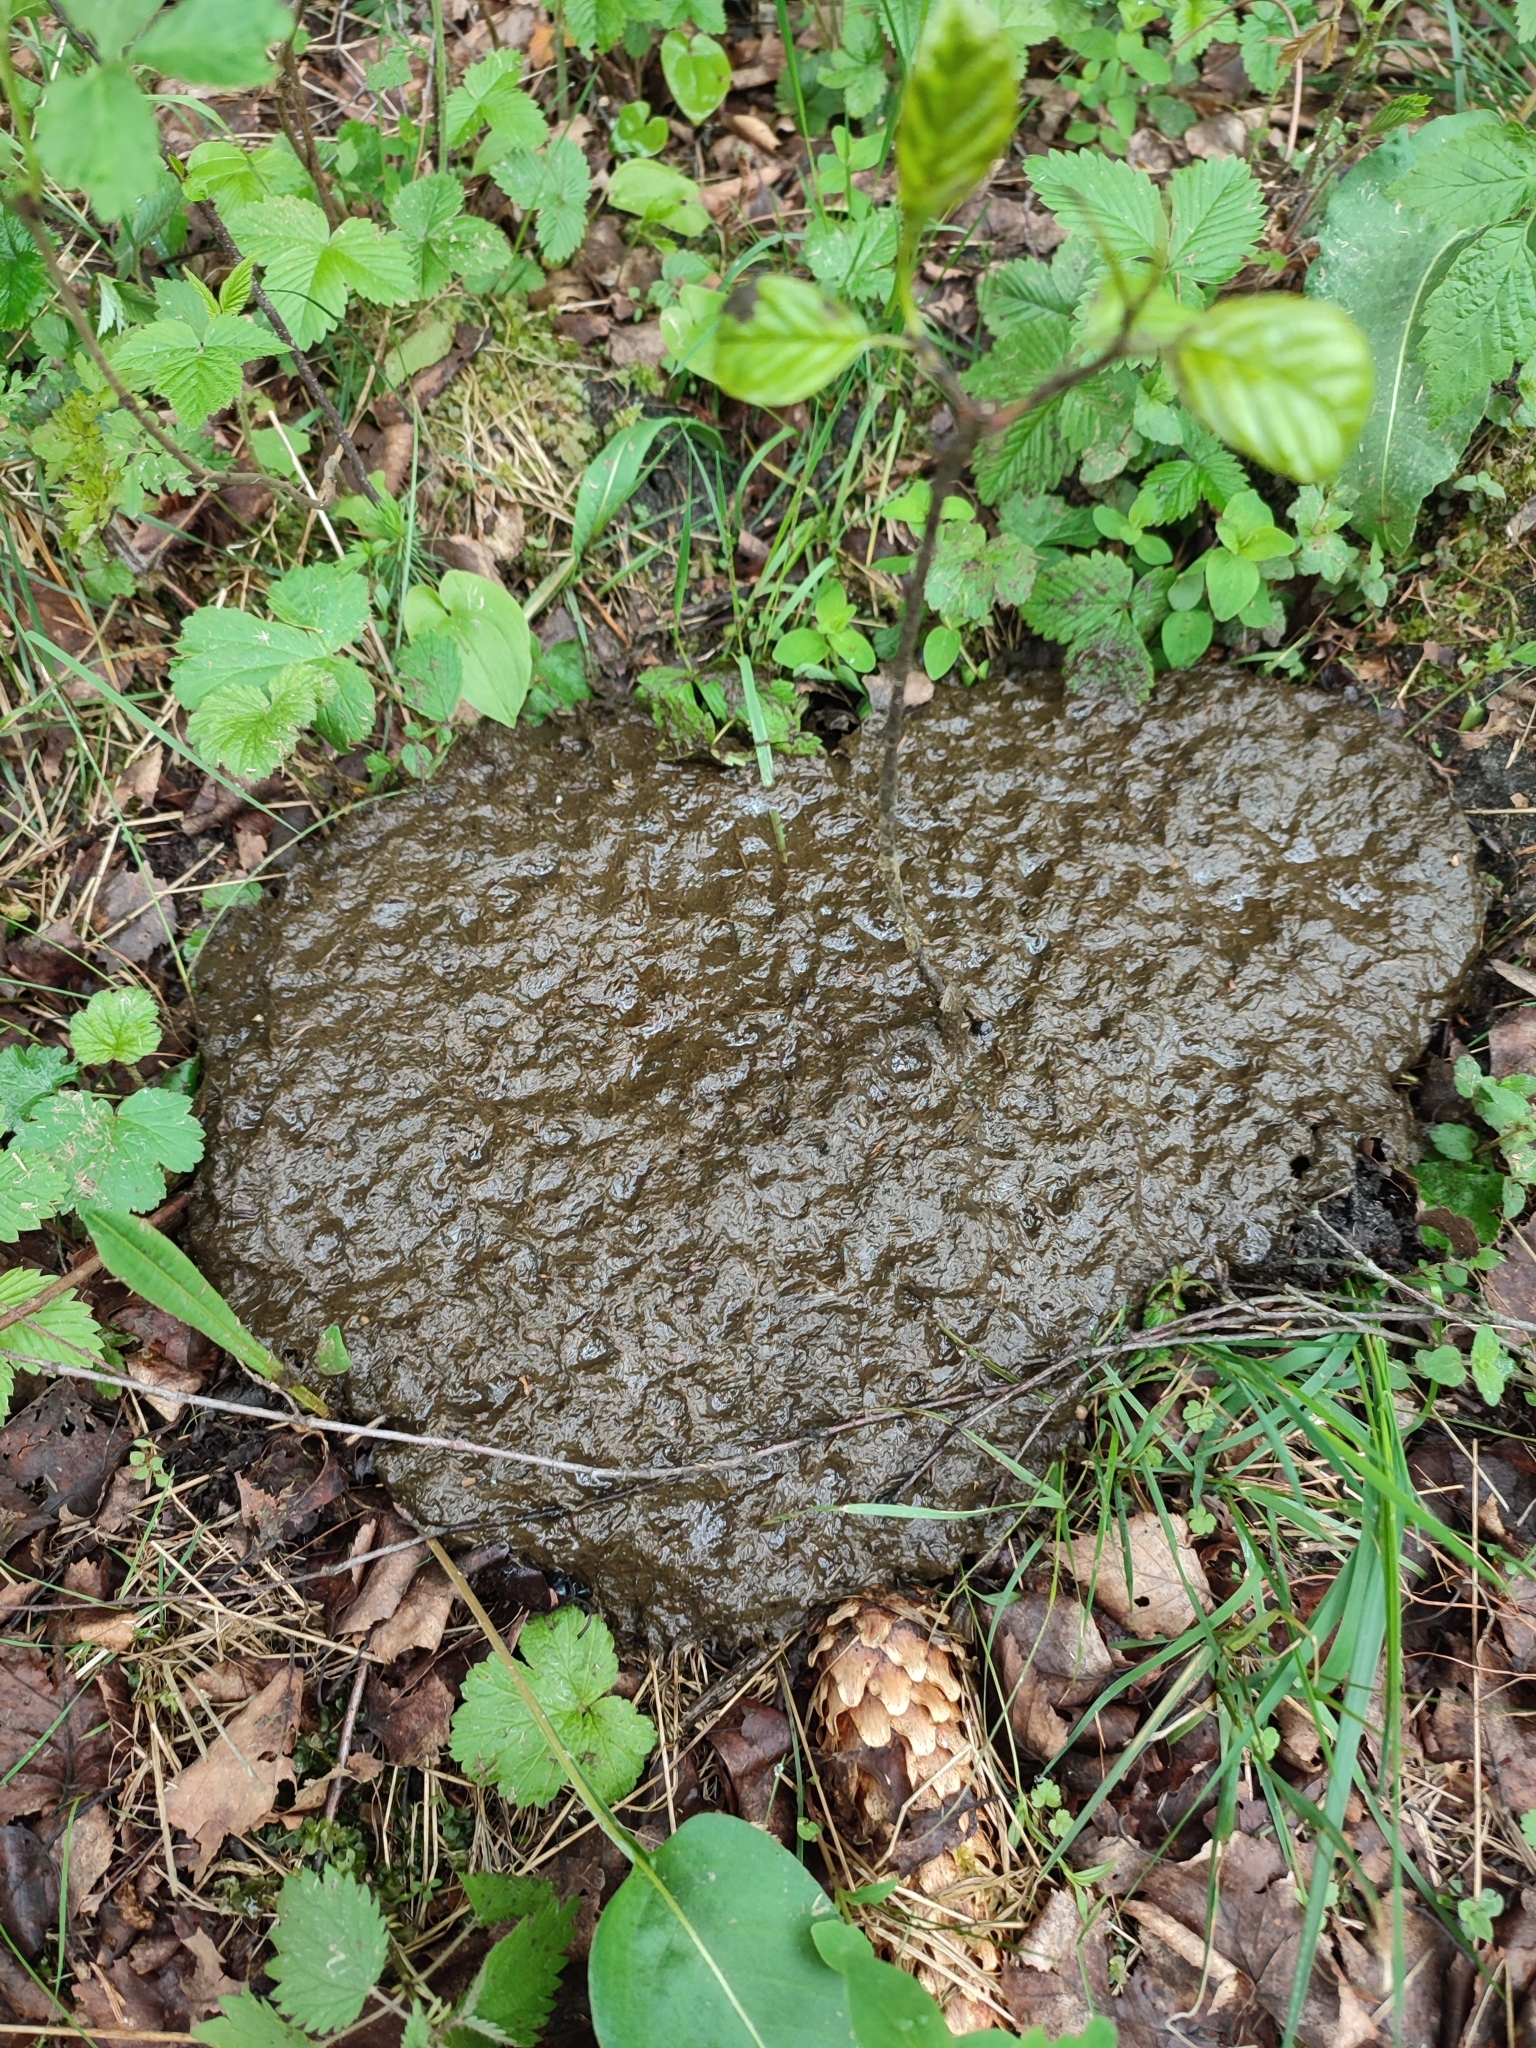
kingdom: Animalia
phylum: Chordata
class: Mammalia
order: Artiodactyla
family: Bovidae
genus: Bison
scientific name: Bison bonasus
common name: European bison
